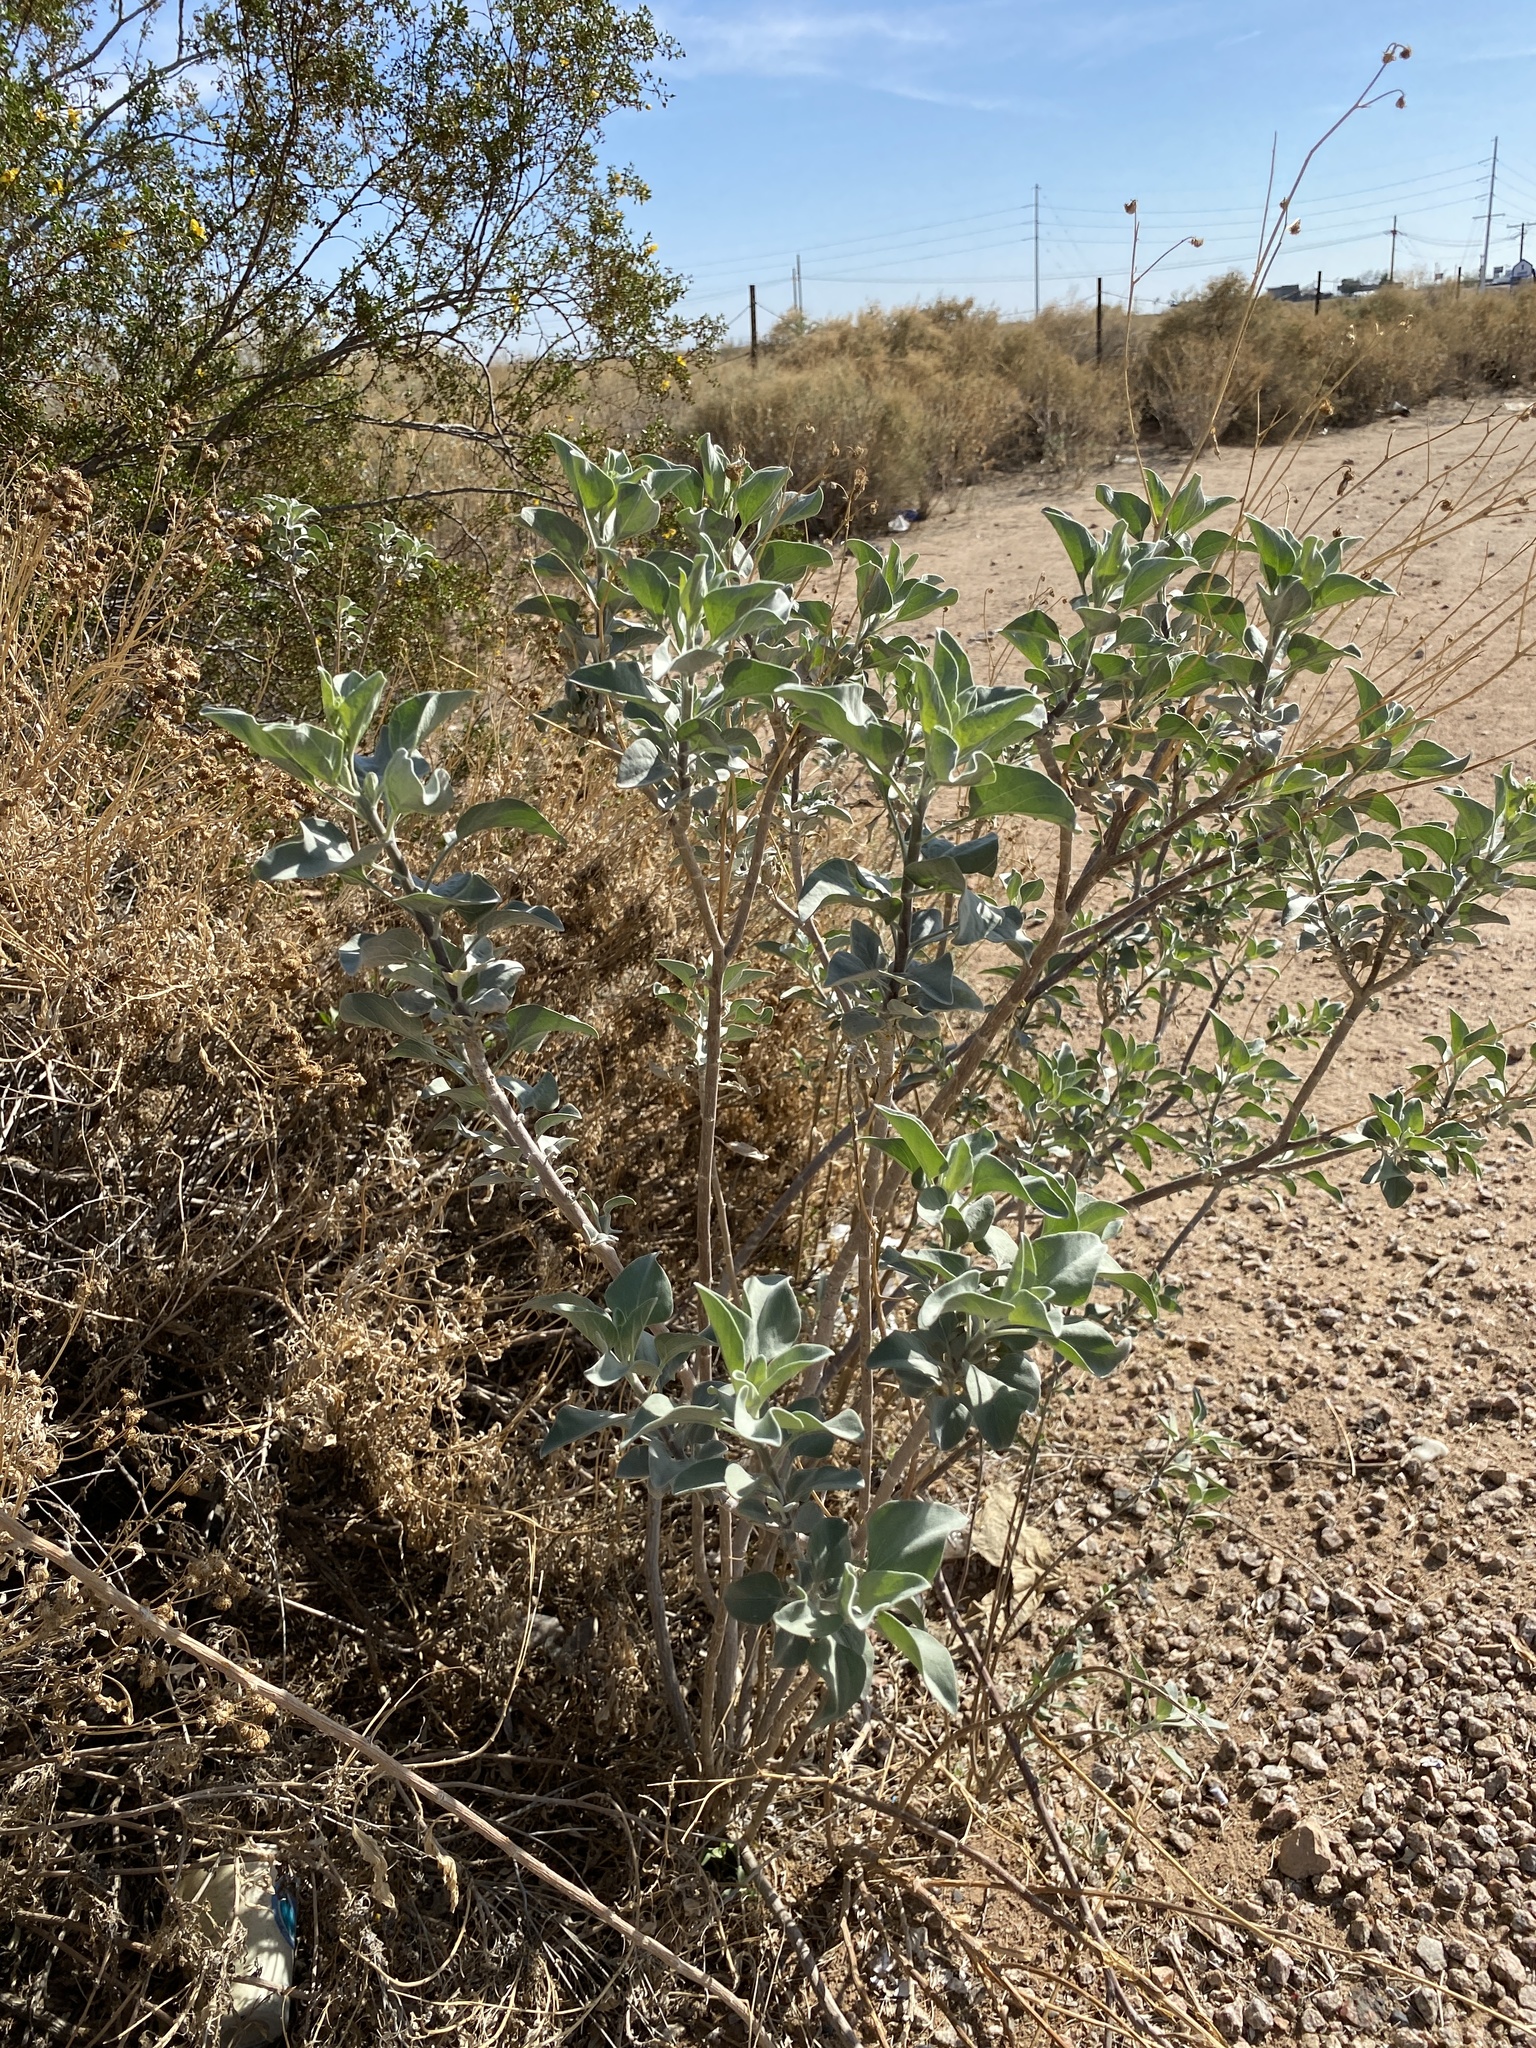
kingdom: Plantae
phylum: Tracheophyta
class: Magnoliopsida
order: Asterales
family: Asteraceae
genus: Encelia
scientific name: Encelia farinosa
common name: Brittlebush
